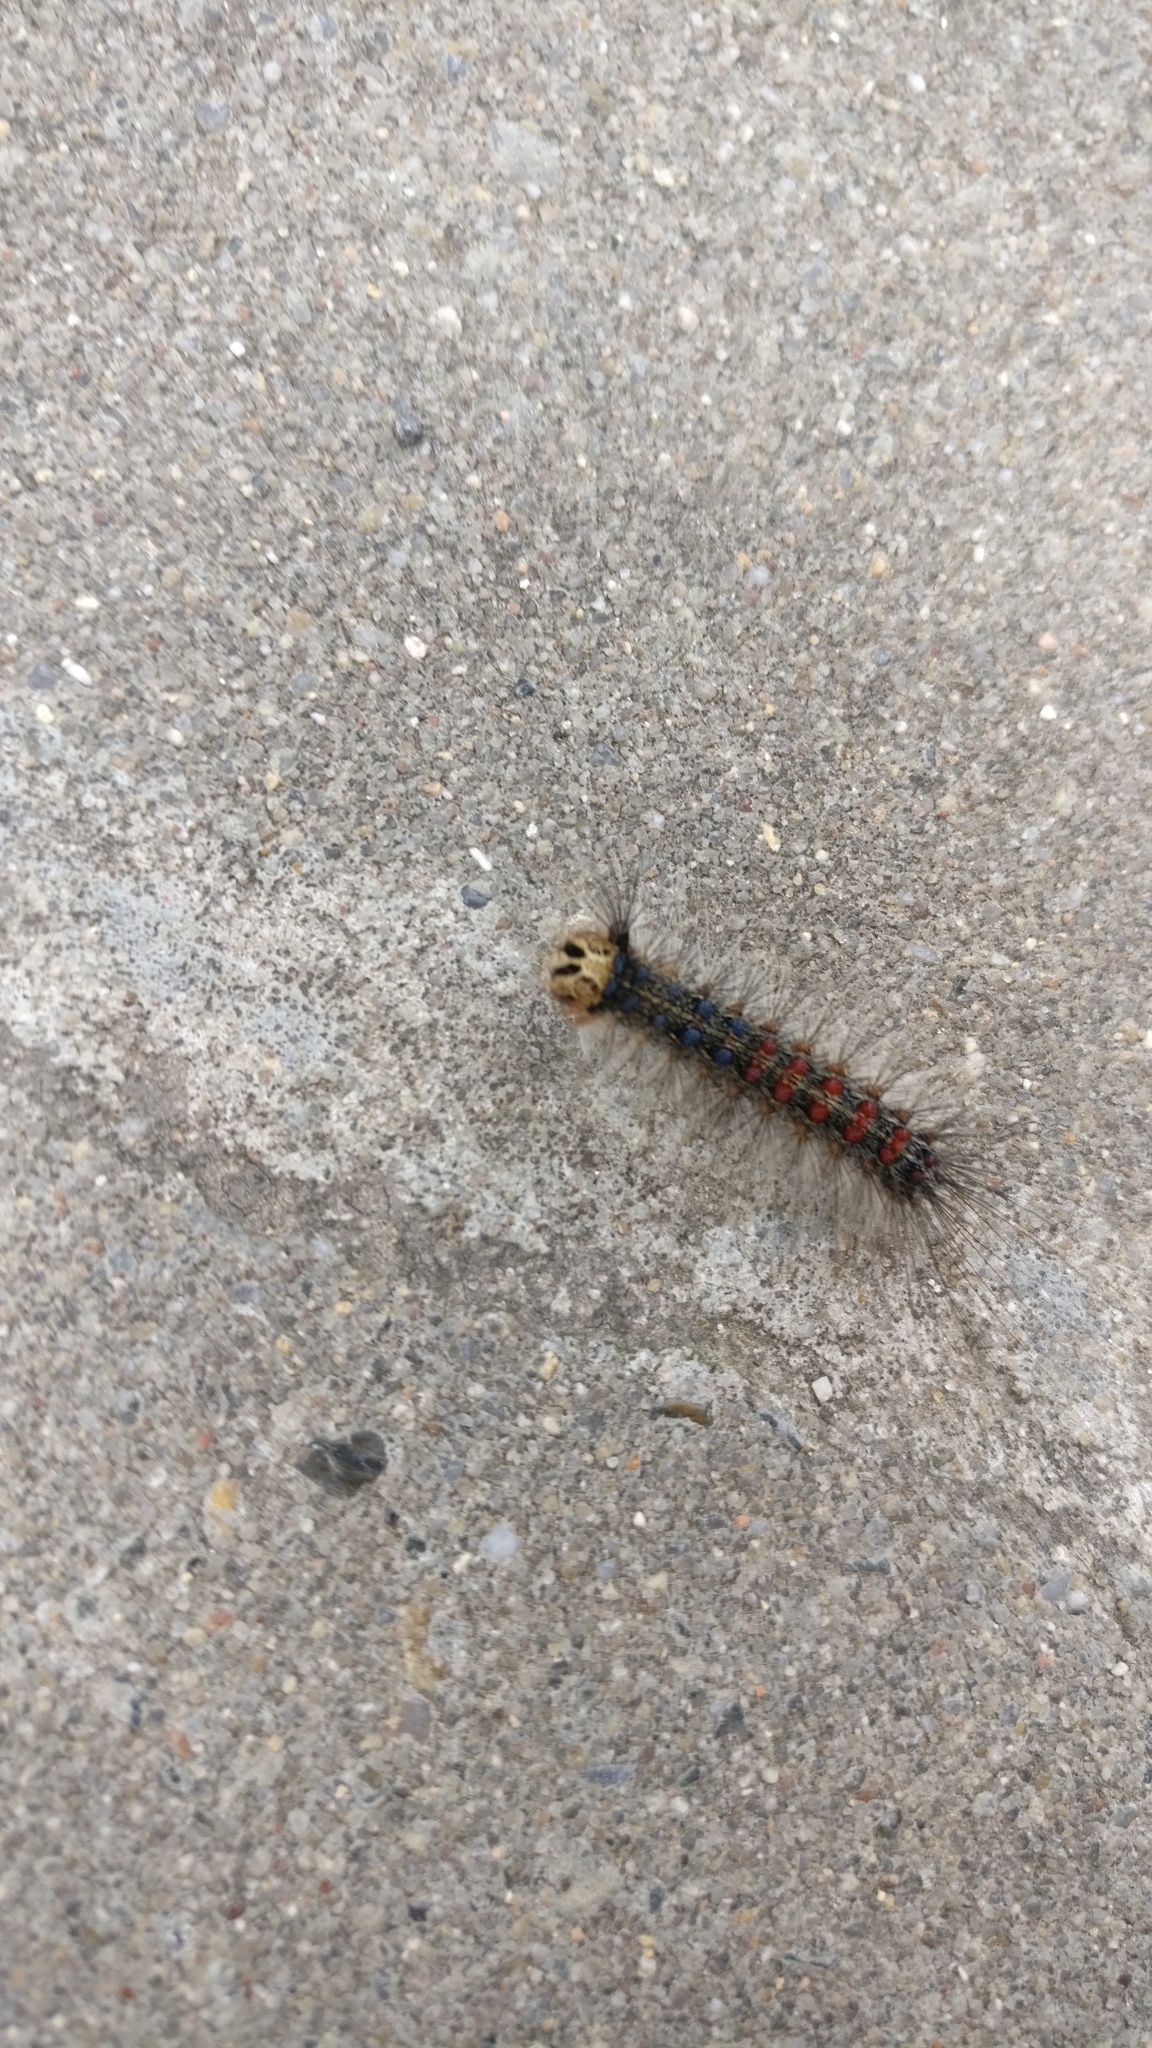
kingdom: Animalia
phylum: Arthropoda
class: Insecta
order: Lepidoptera
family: Erebidae
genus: Lymantria
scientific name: Lymantria dispar
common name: Gypsy moth
